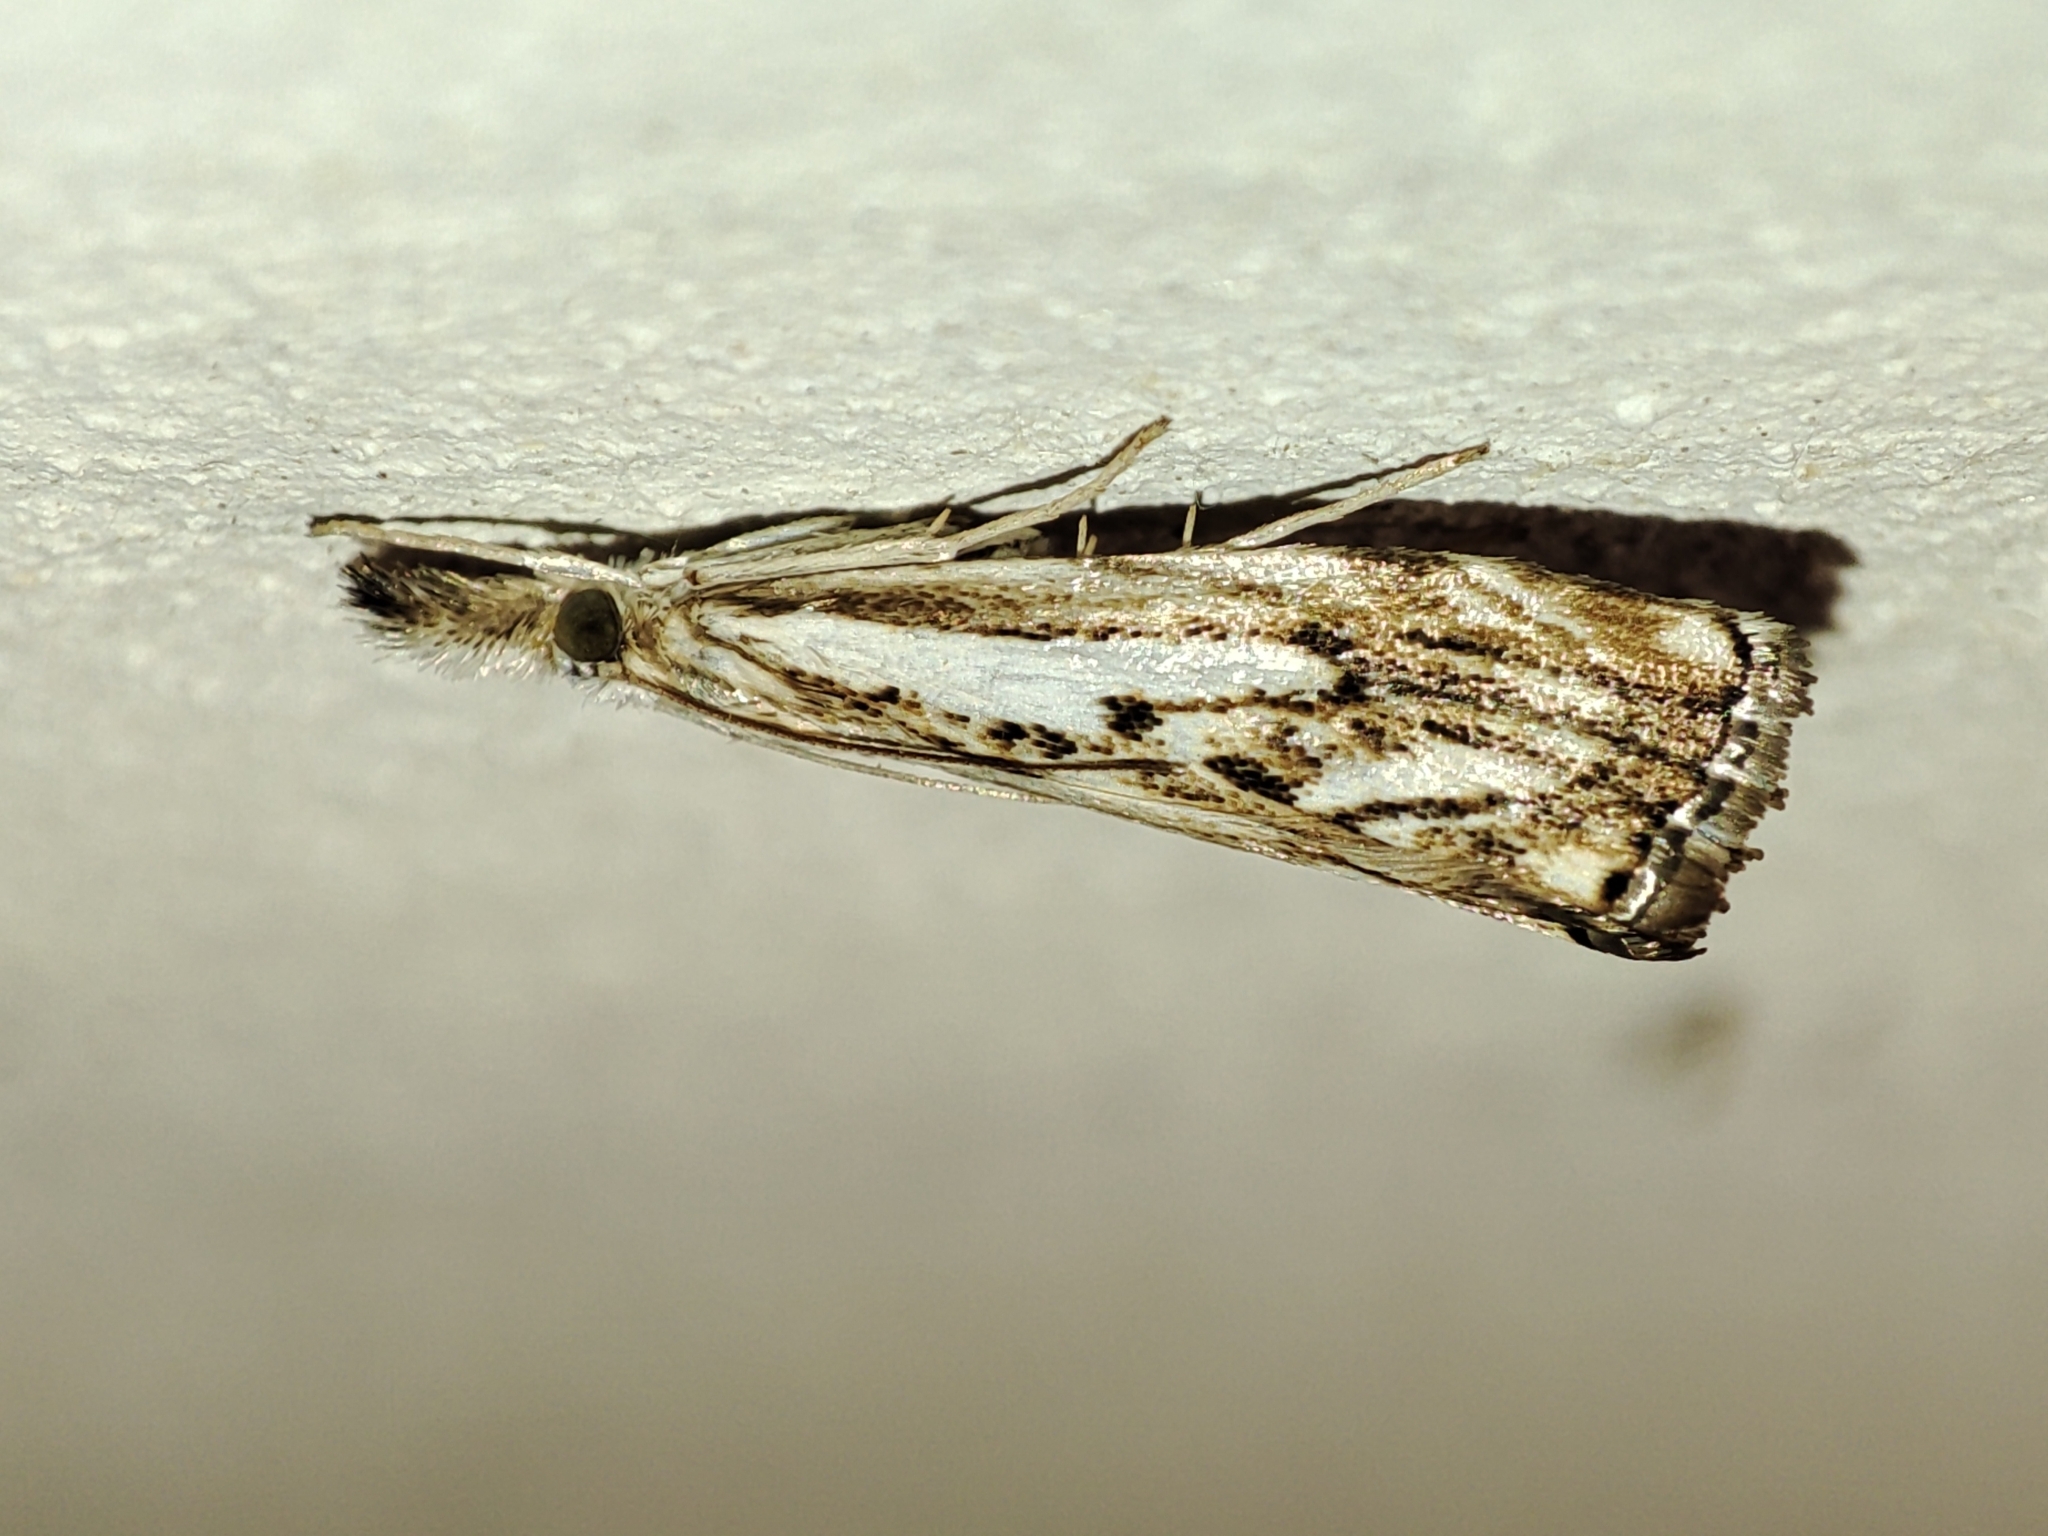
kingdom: Animalia
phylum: Arthropoda
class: Insecta
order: Lepidoptera
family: Crambidae
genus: Catoptria
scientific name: Catoptria falsella
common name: Chequered grass-veneer
